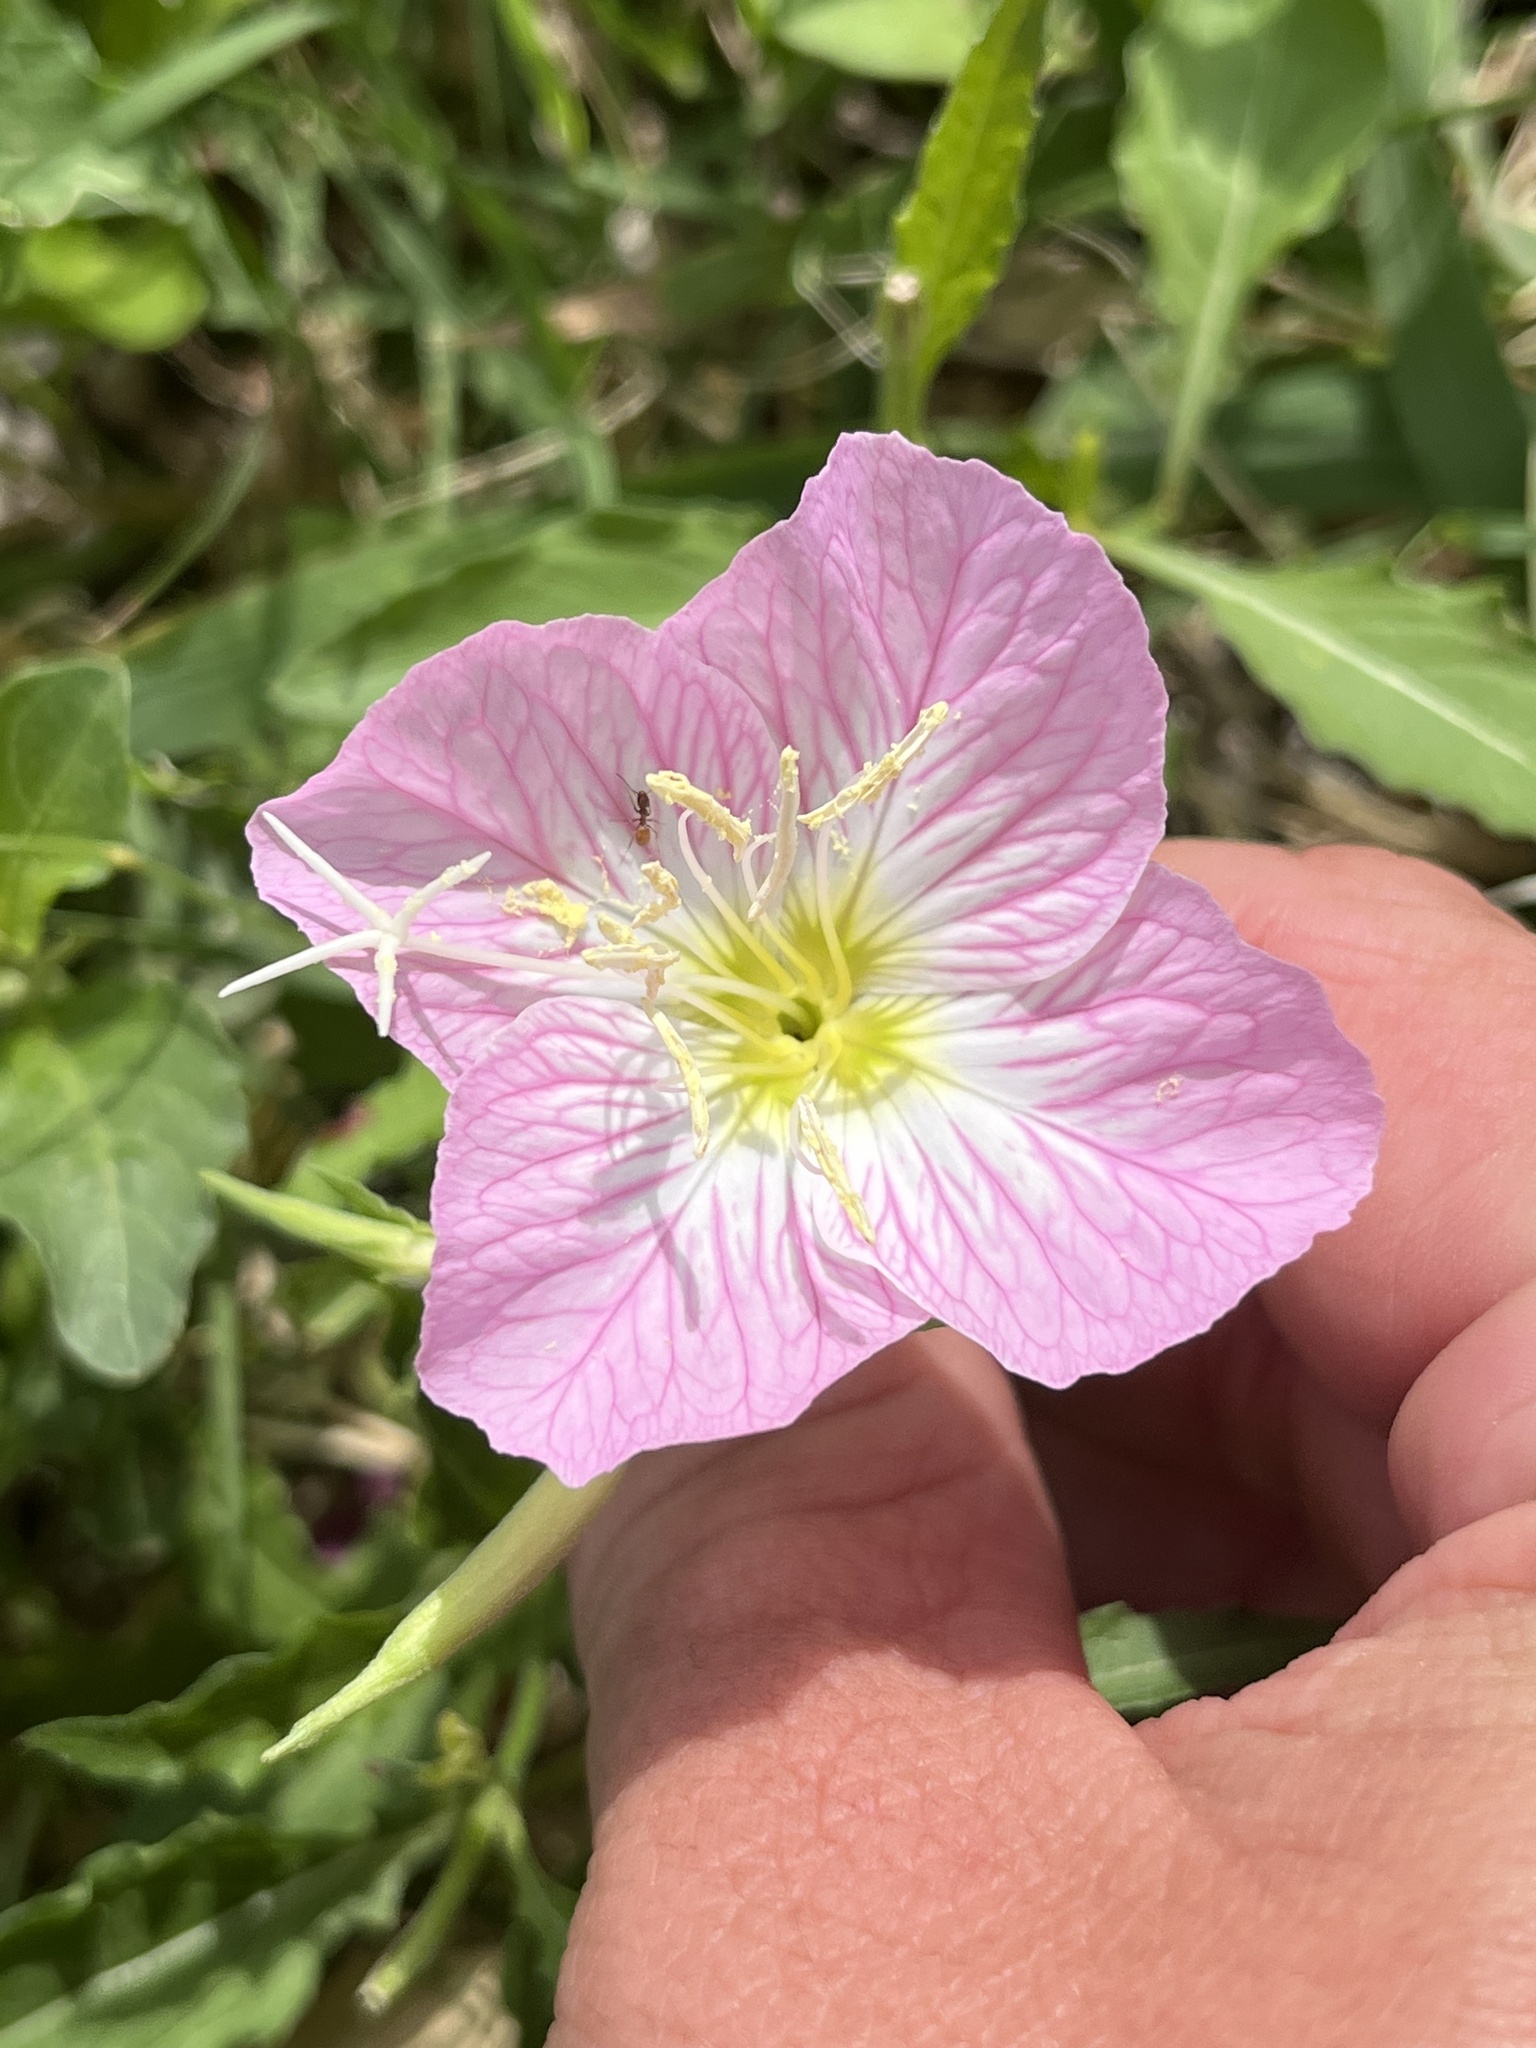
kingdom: Plantae
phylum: Tracheophyta
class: Magnoliopsida
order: Myrtales
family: Onagraceae
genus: Oenothera
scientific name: Oenothera speciosa
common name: White evening-primrose
